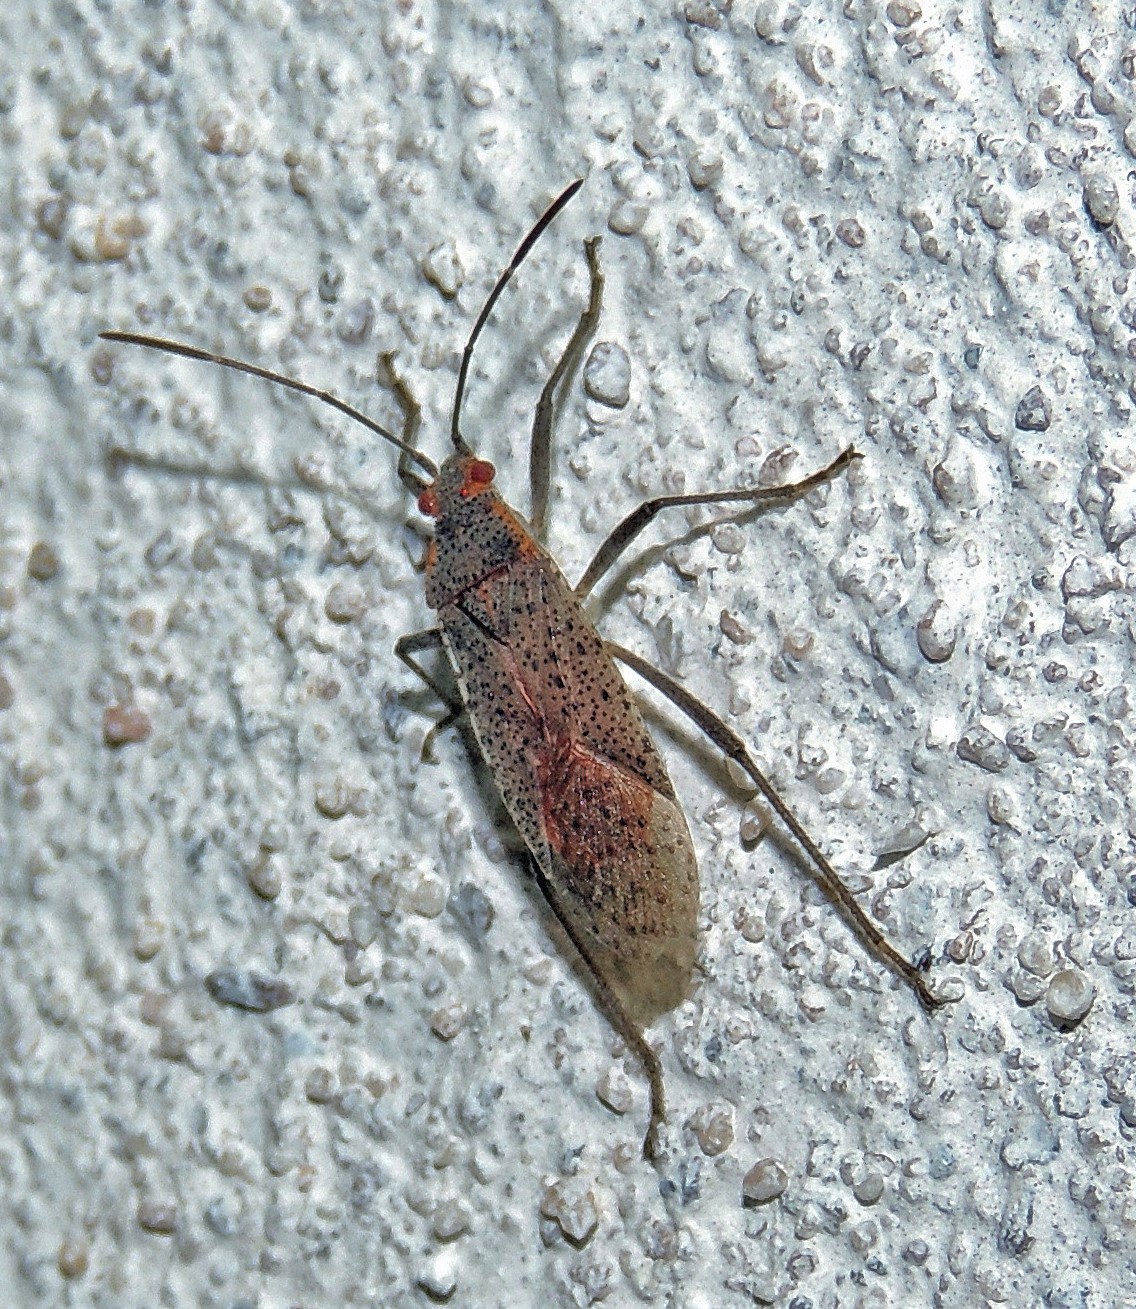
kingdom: Animalia
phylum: Arthropoda
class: Insecta
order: Hemiptera
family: Rhopalidae
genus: Jadera
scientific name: Jadera coturnix
